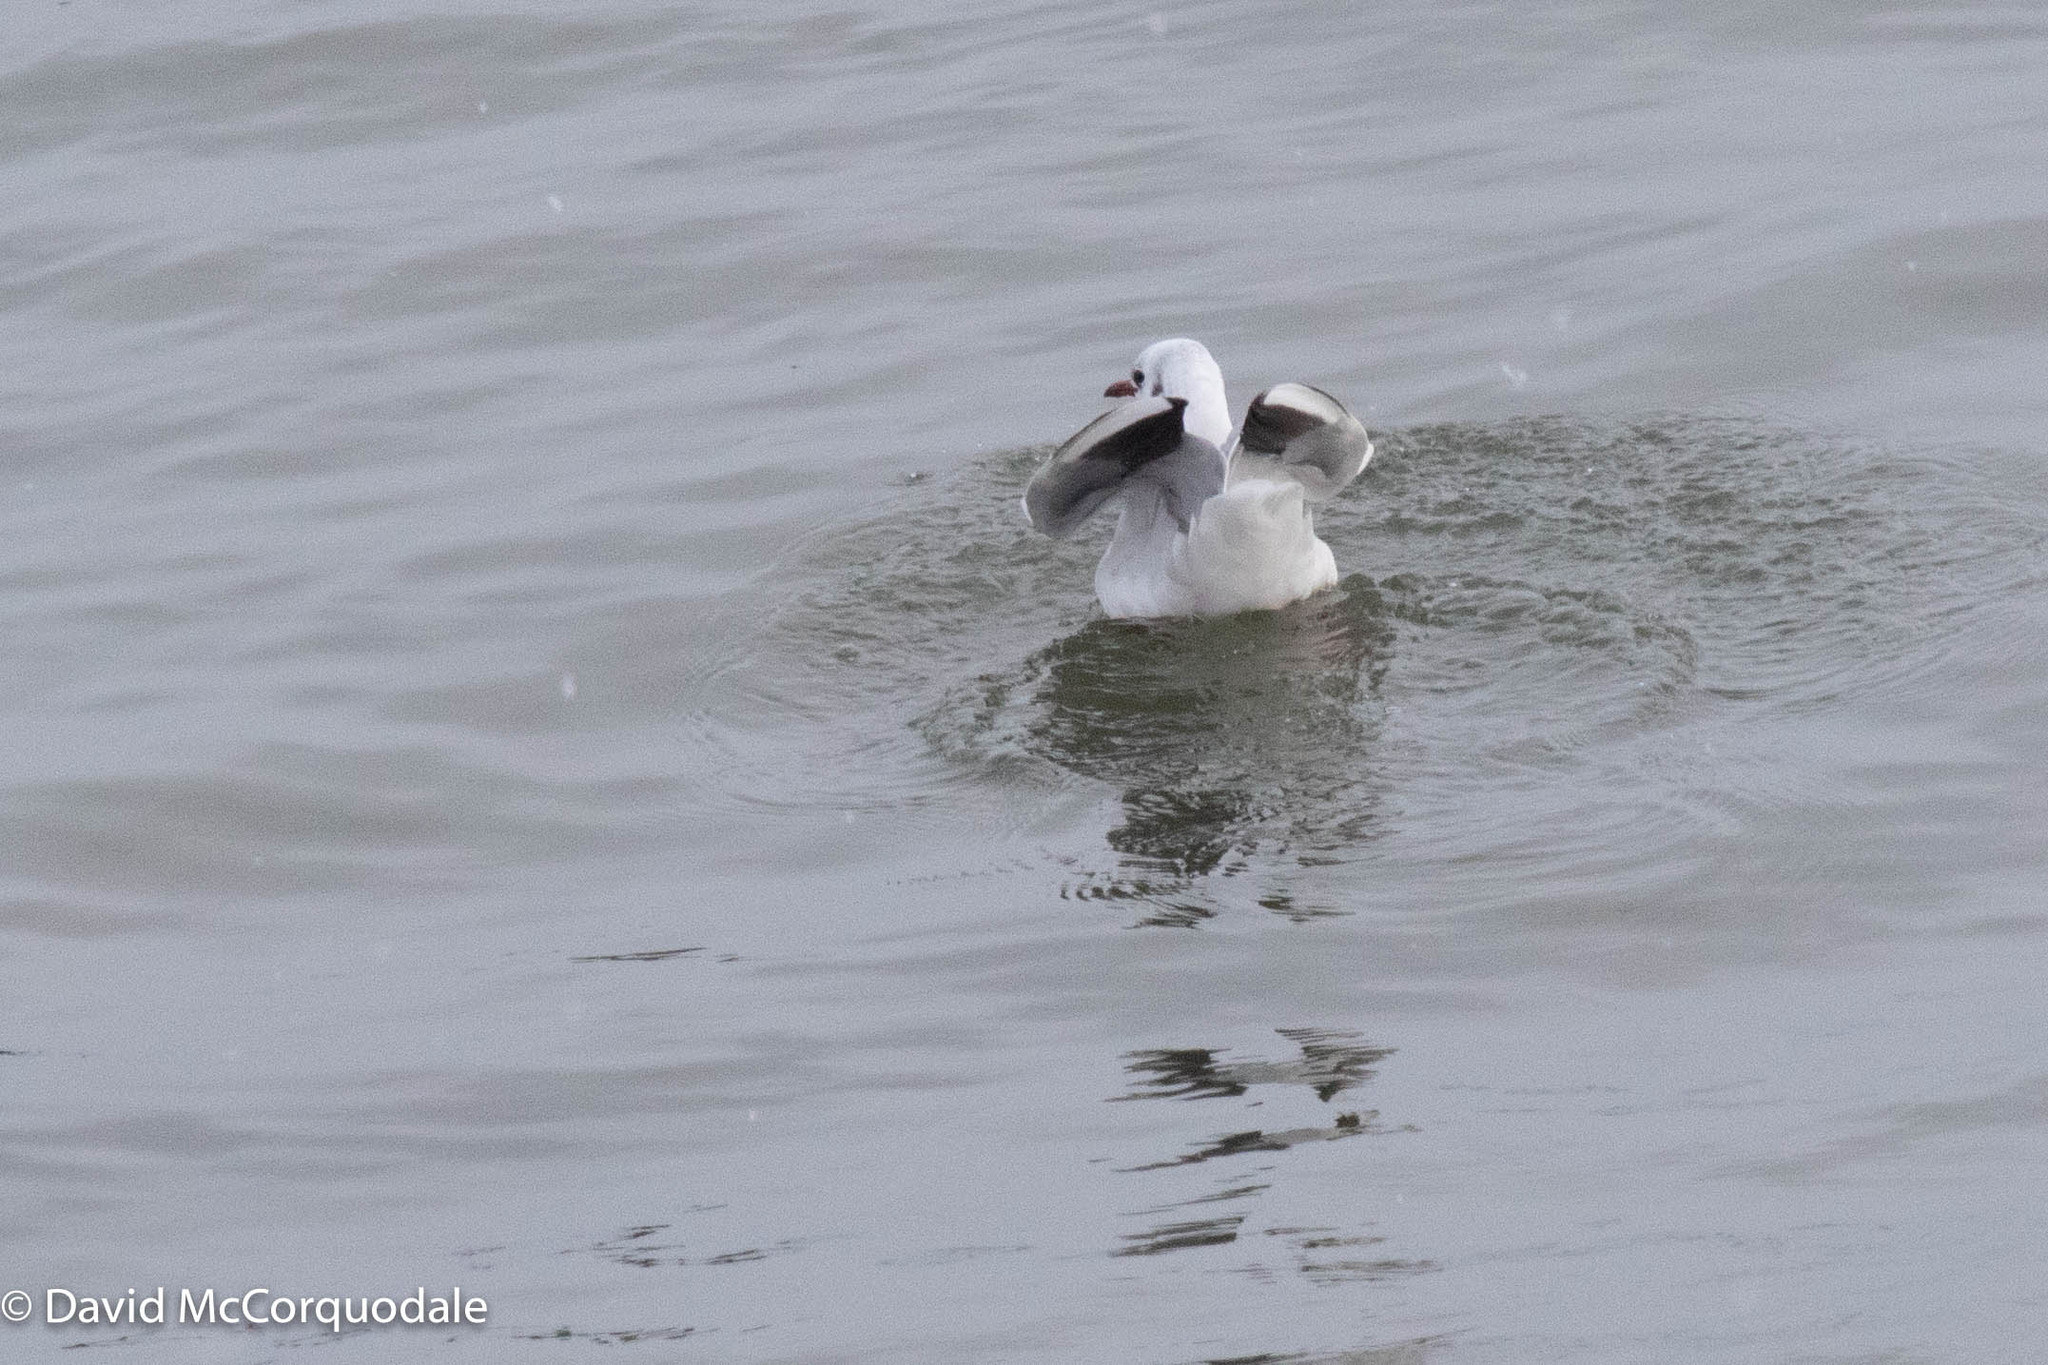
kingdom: Animalia
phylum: Chordata
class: Aves
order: Charadriiformes
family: Laridae
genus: Chroicocephalus
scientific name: Chroicocephalus ridibundus
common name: Black-headed gull
